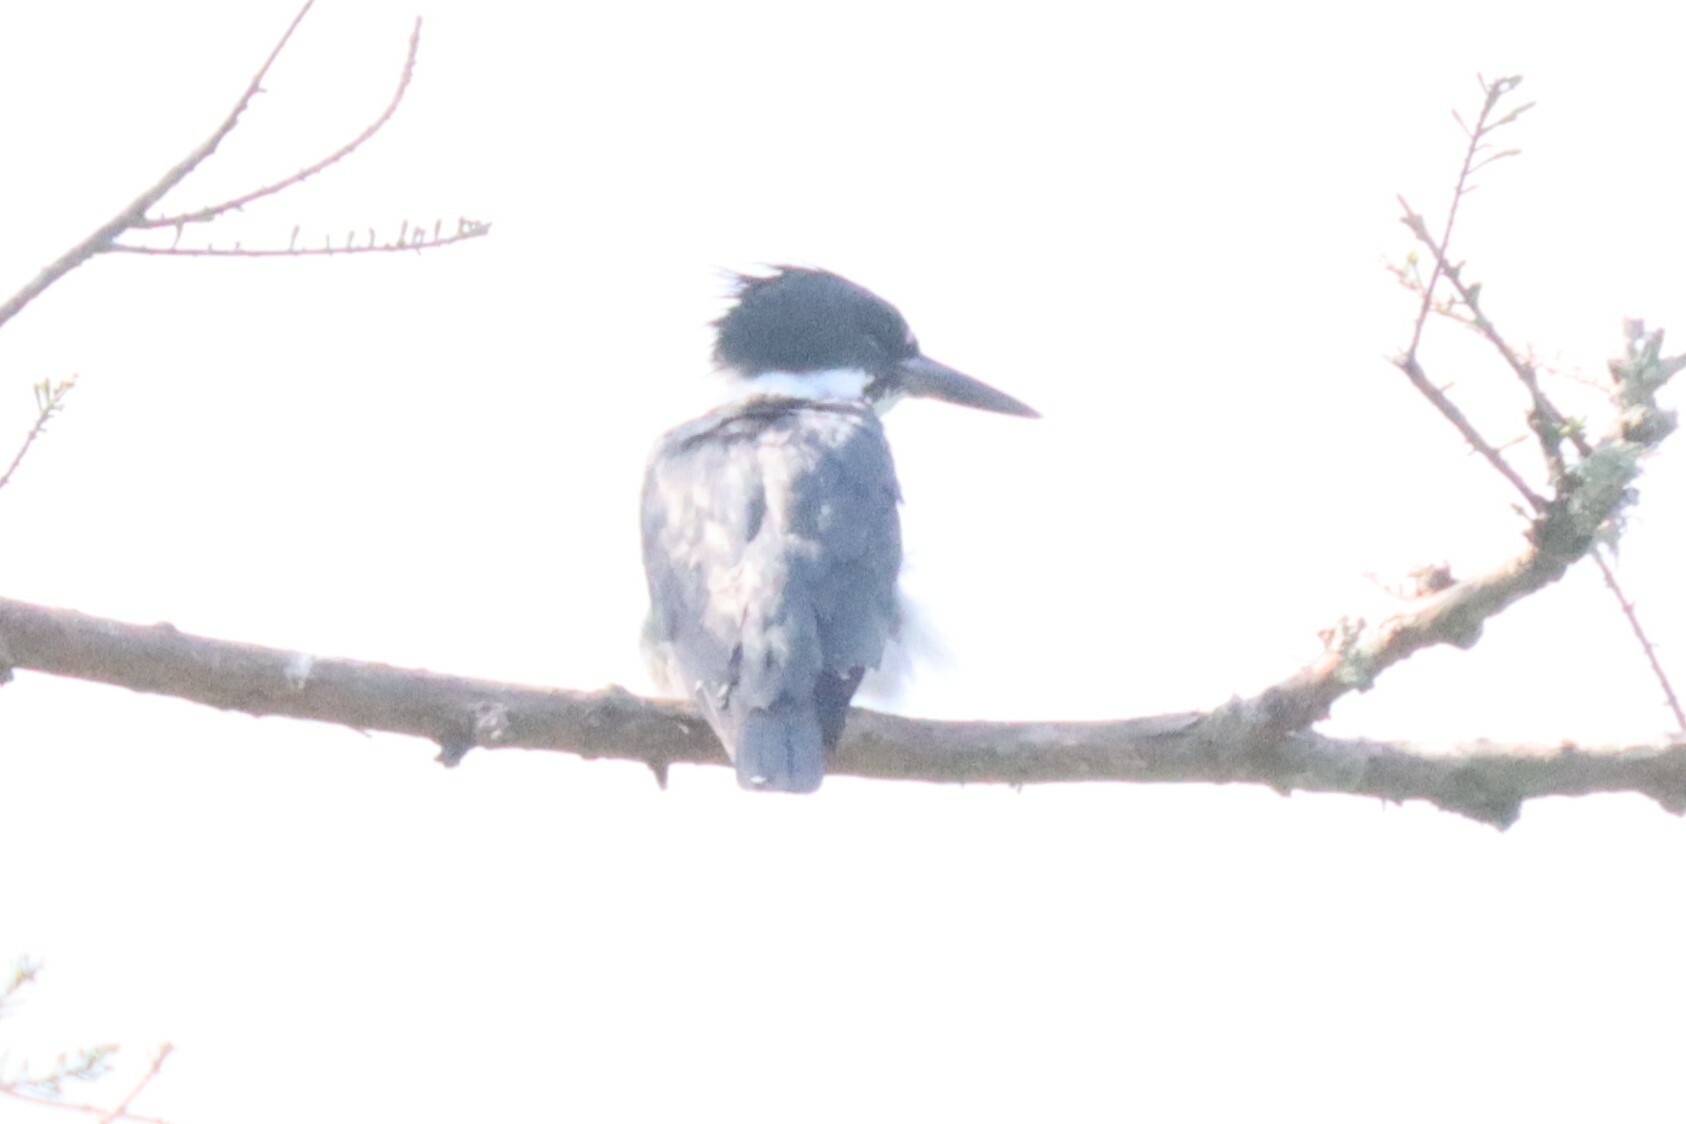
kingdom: Animalia
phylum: Chordata
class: Aves
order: Coraciiformes
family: Alcedinidae
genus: Megaceryle
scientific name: Megaceryle alcyon
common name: Belted kingfisher
